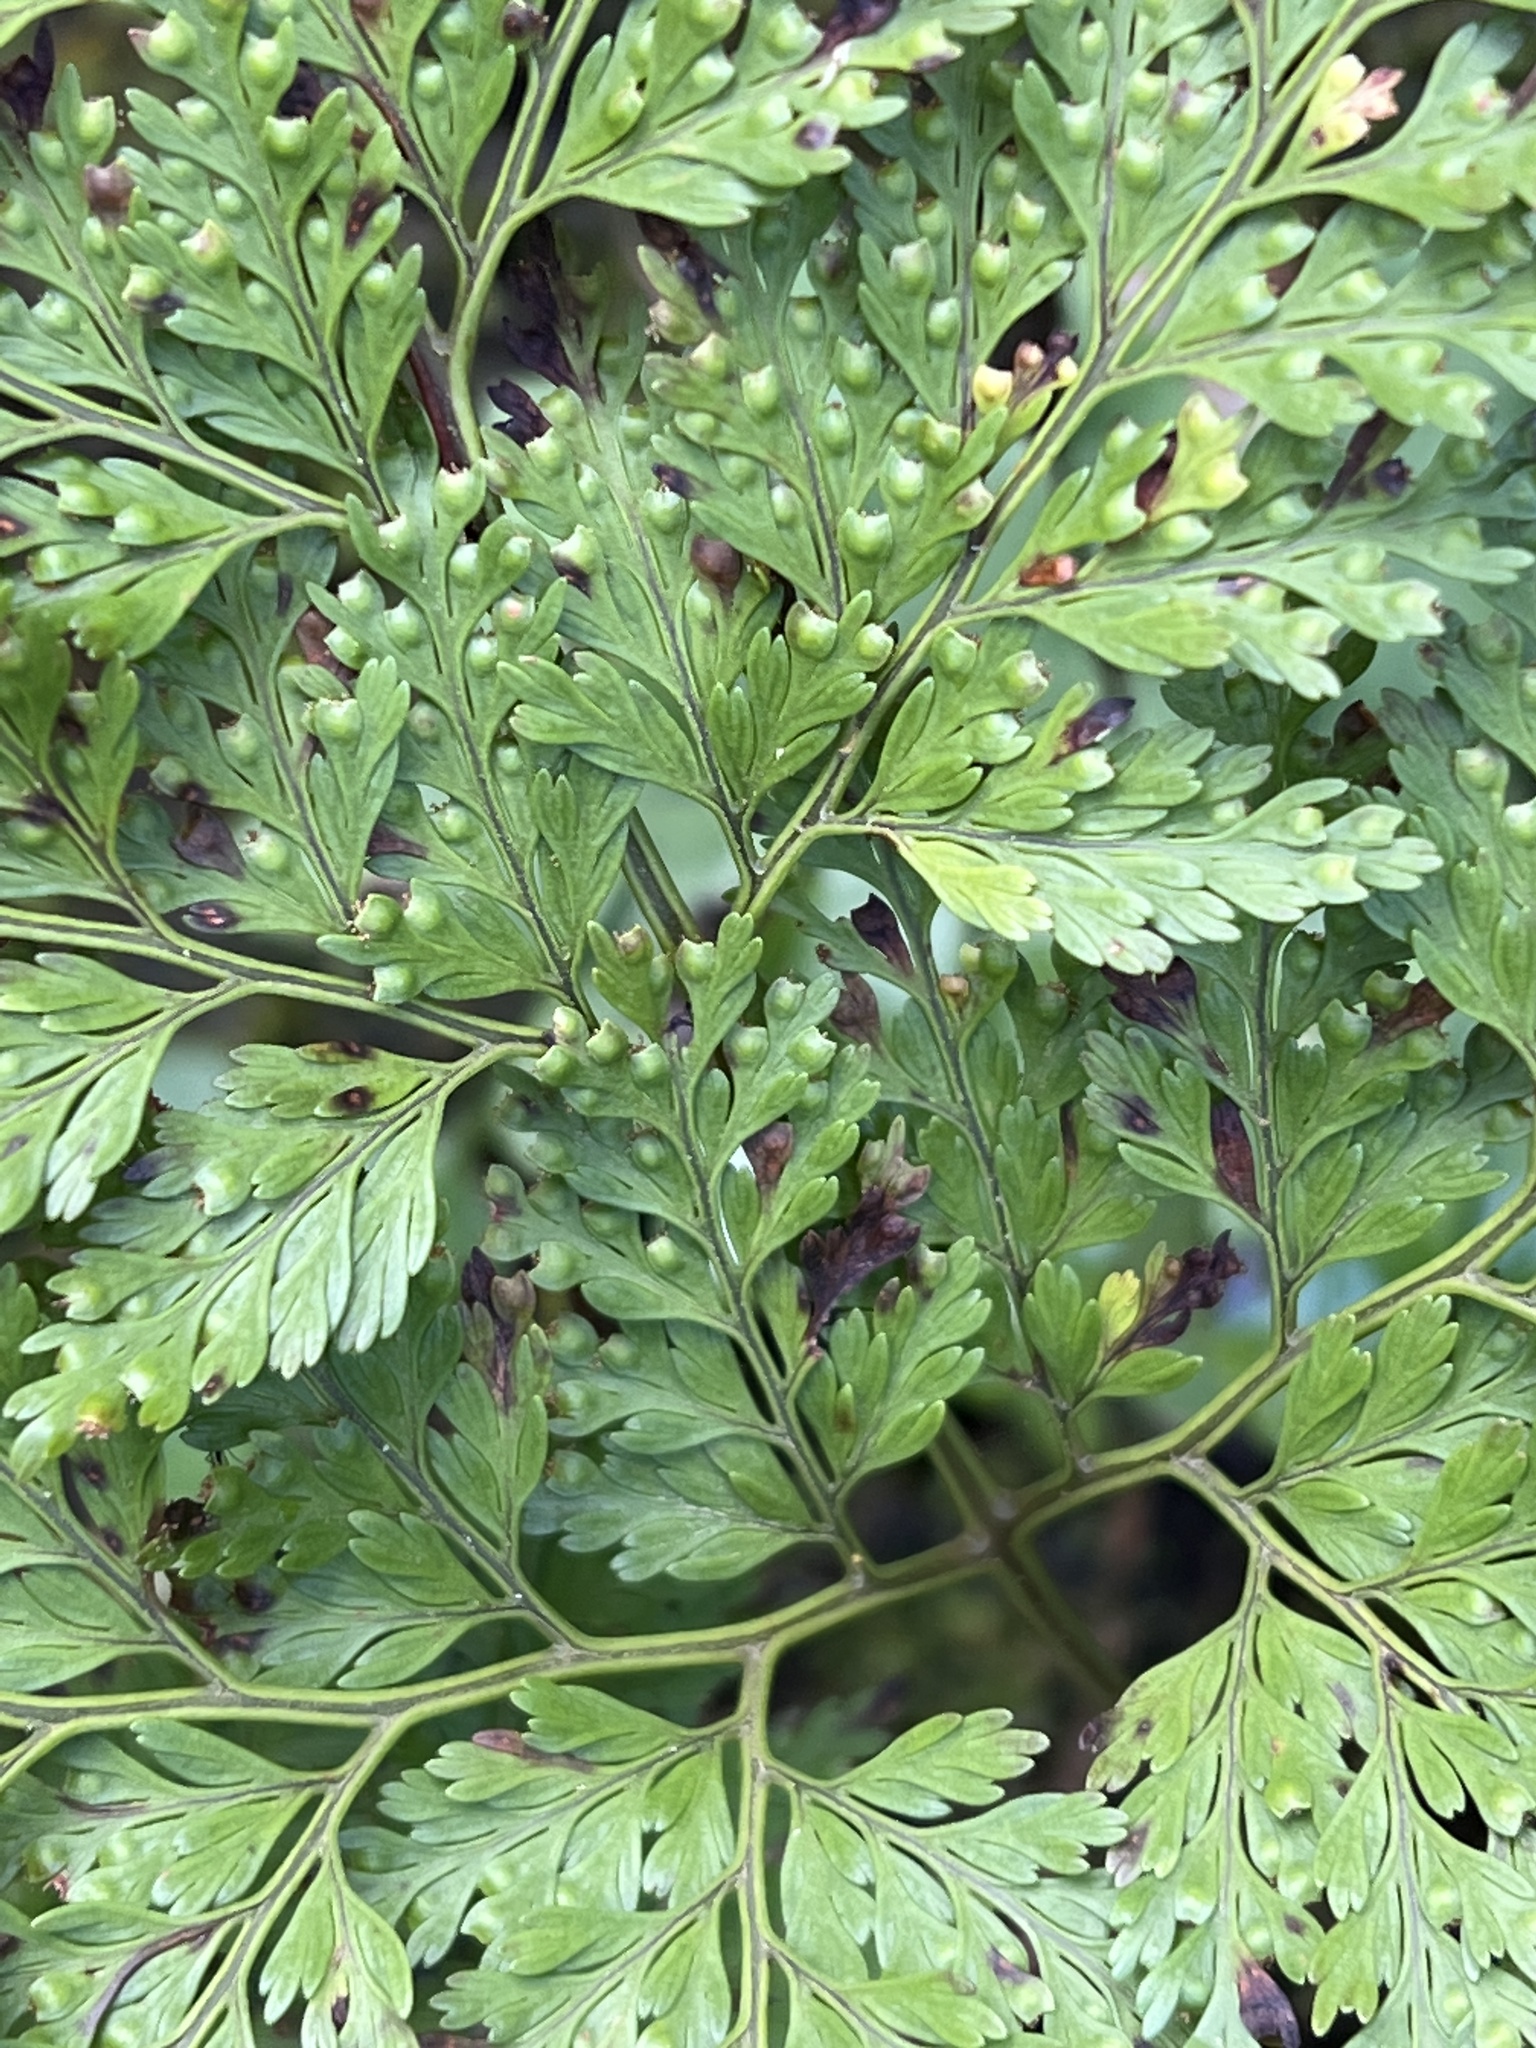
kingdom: Plantae
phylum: Tracheophyta
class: Polypodiopsida
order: Polypodiales
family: Davalliaceae
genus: Davallia
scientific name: Davallia canariensis
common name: Hare's-foot fern
